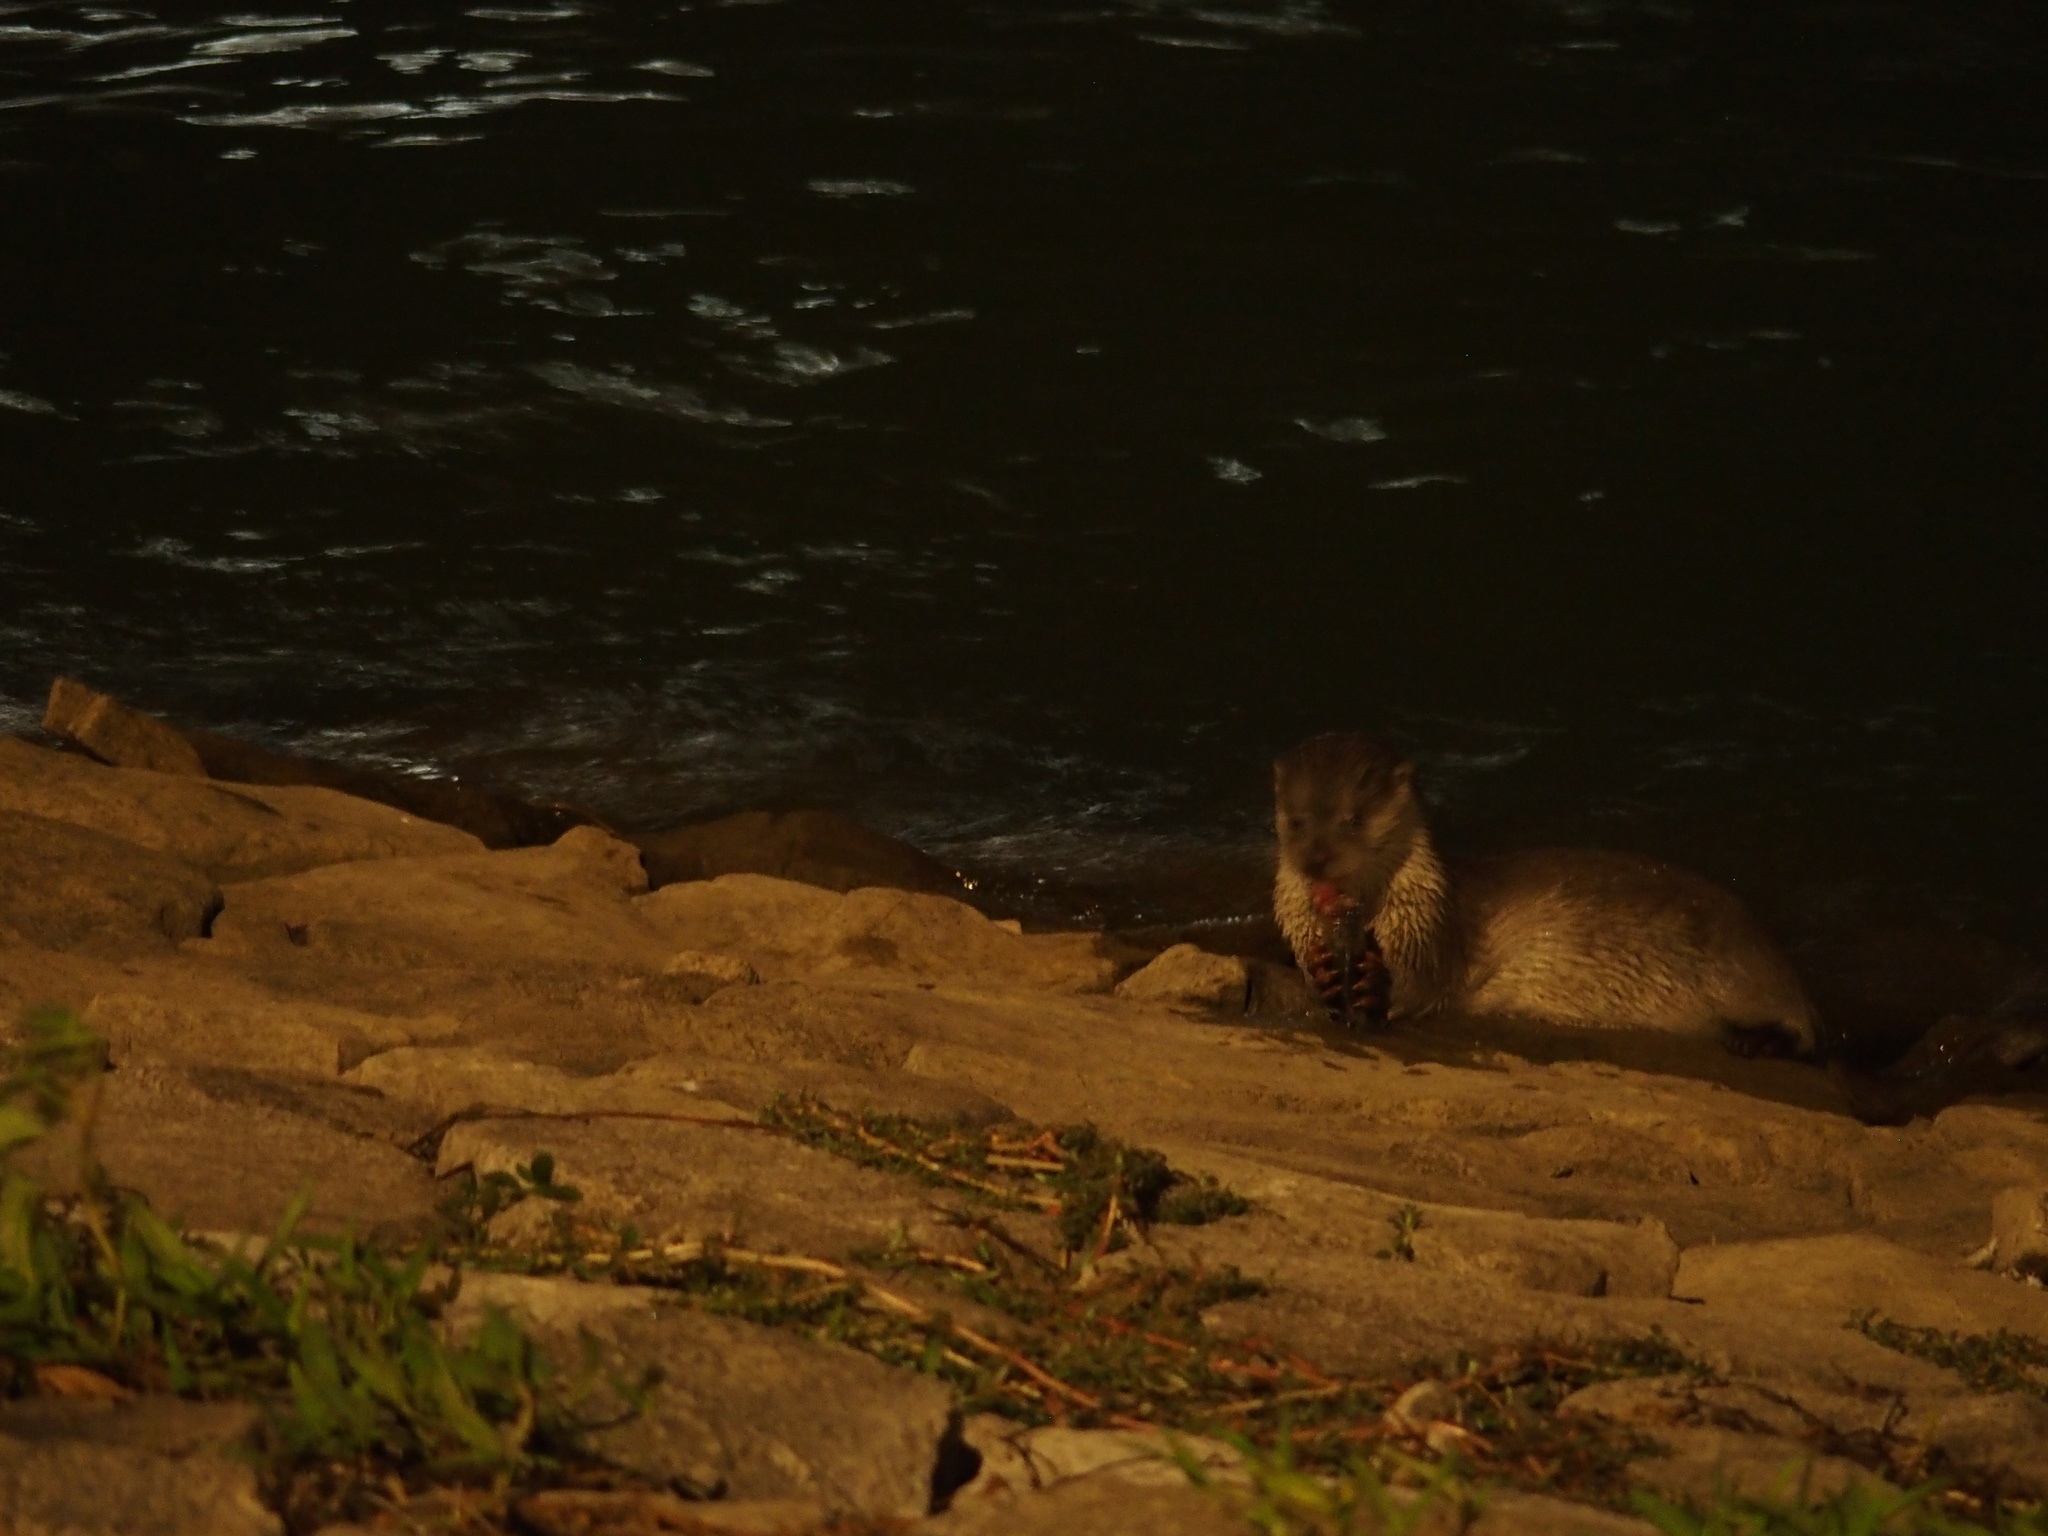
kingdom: Animalia
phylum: Chordata
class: Mammalia
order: Carnivora
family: Mustelidae
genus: Lutra
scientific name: Lutra lutra
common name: European otter
